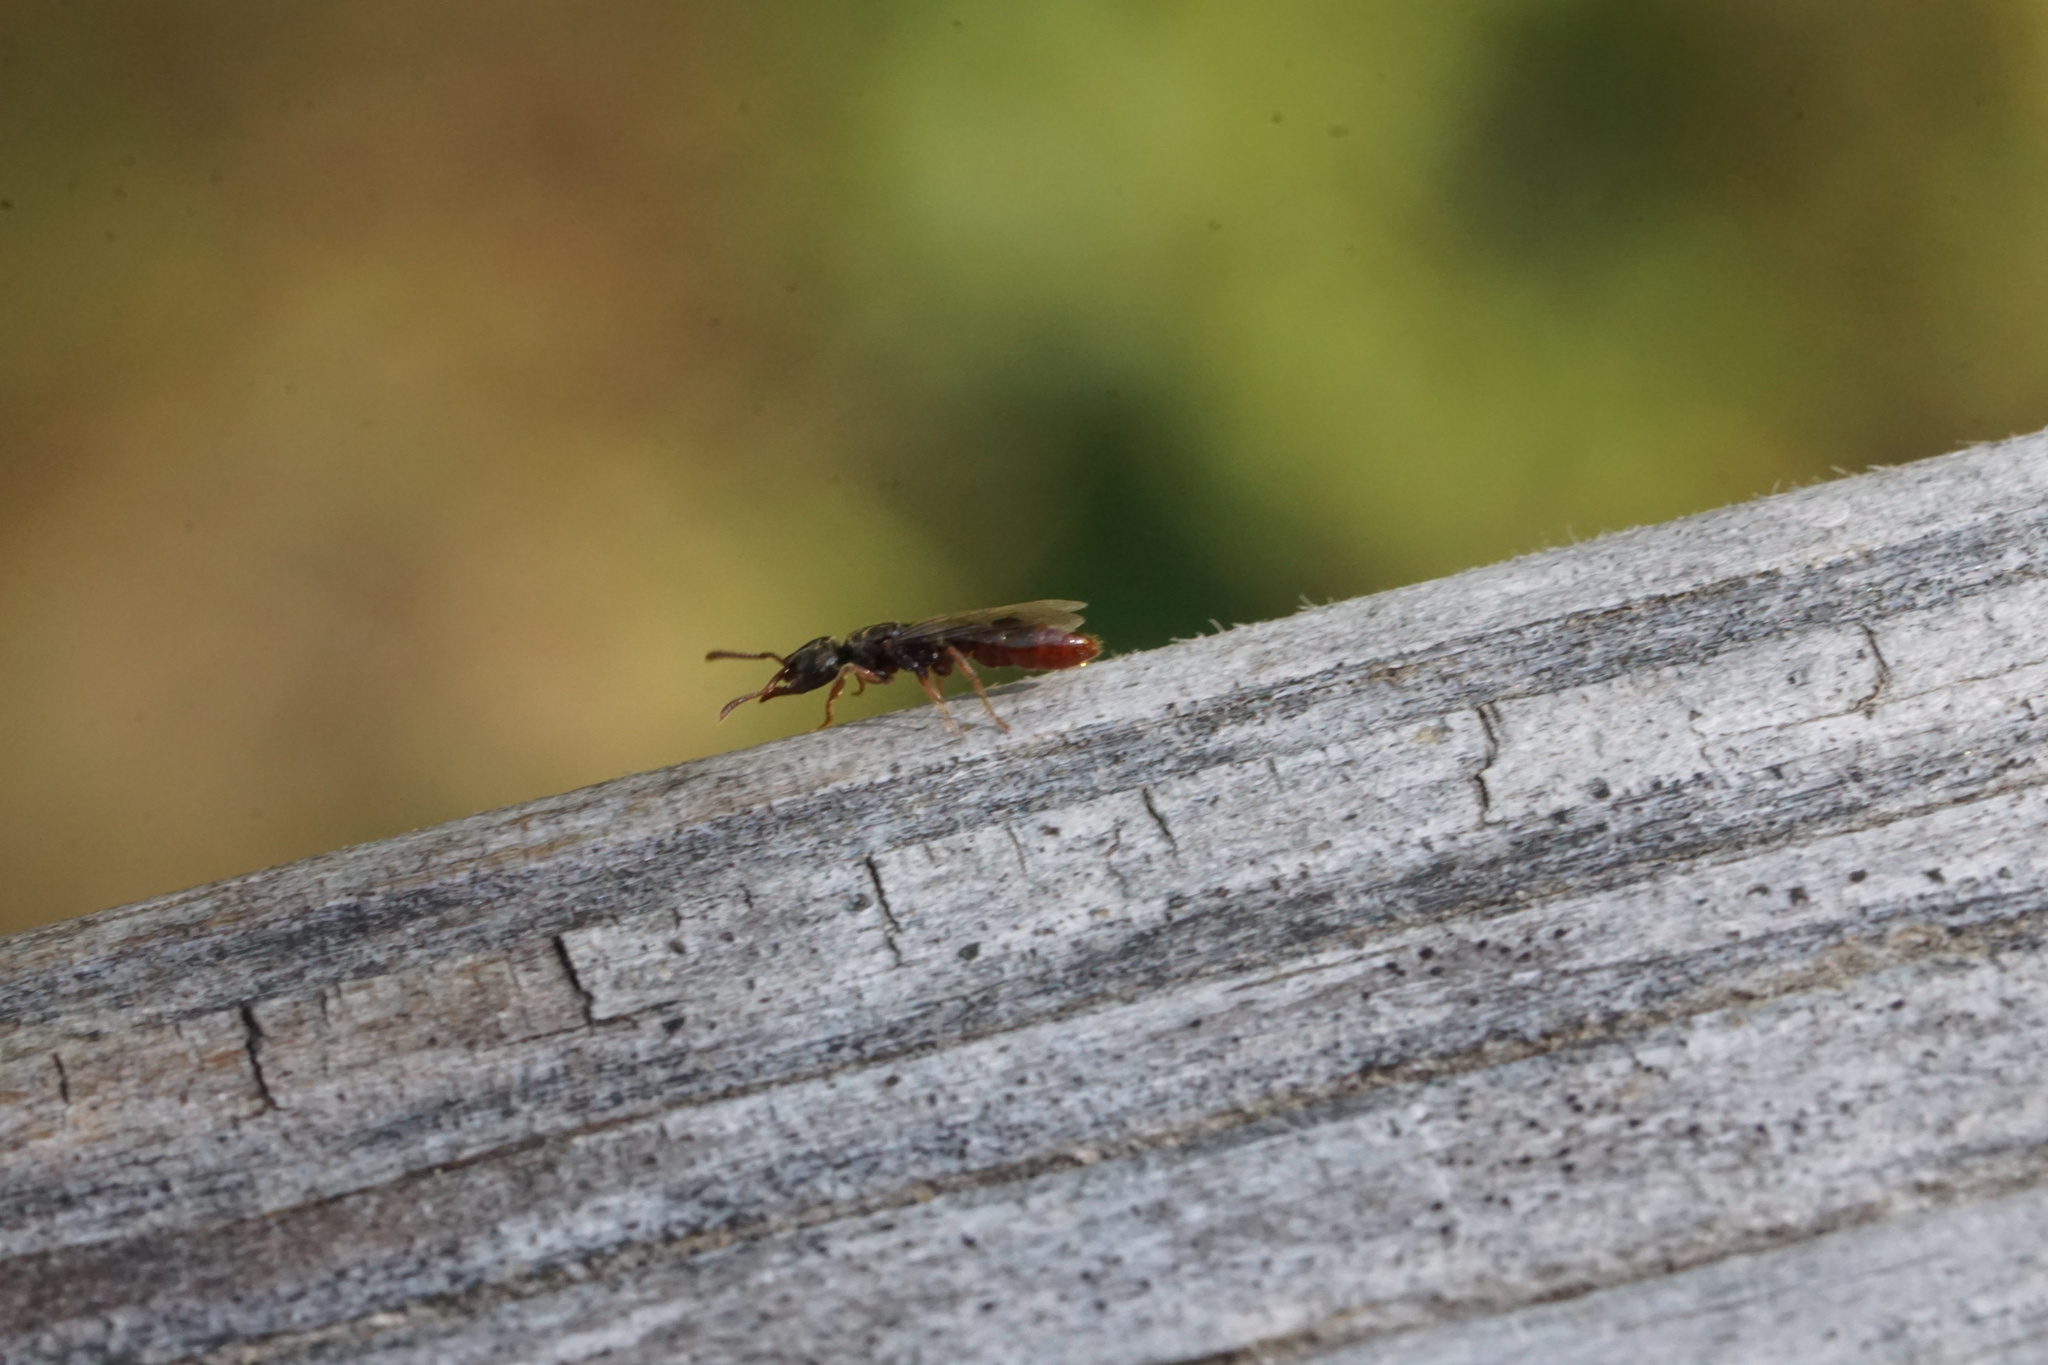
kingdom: Animalia
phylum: Arthropoda
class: Insecta
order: Hymenoptera
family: Formicidae
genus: Stigmatomma
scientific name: Stigmatomma pallipes
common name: Vampire ant
